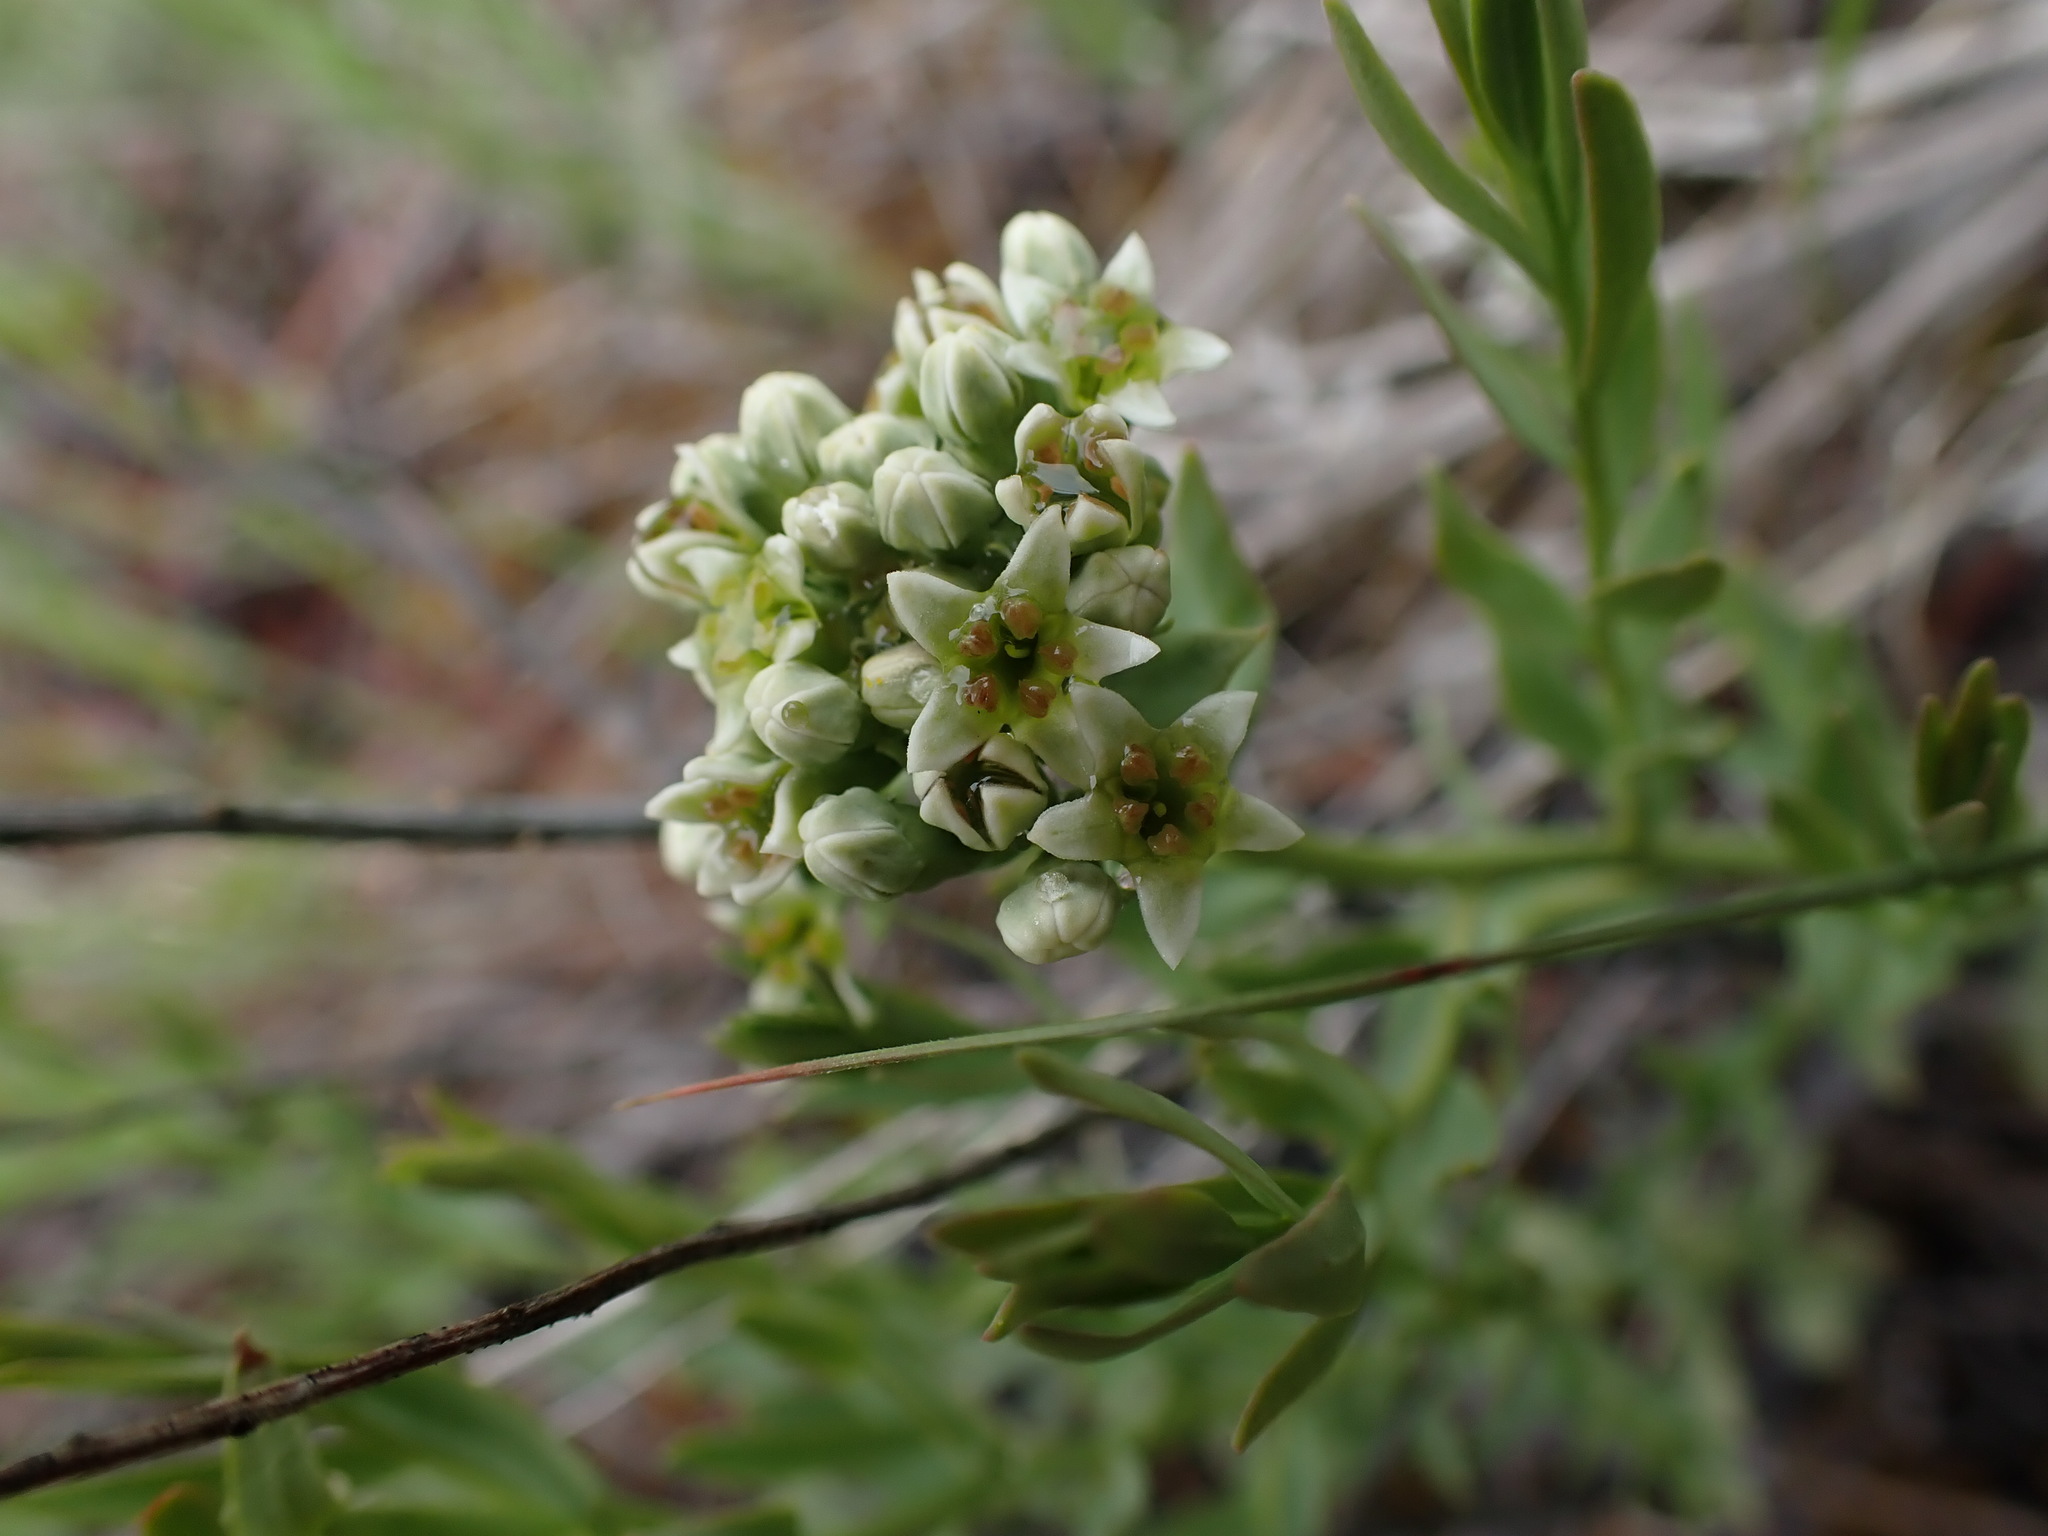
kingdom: Plantae
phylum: Tracheophyta
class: Magnoliopsida
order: Santalales
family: Comandraceae
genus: Comandra
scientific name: Comandra umbellata
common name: Bastard toadflax
